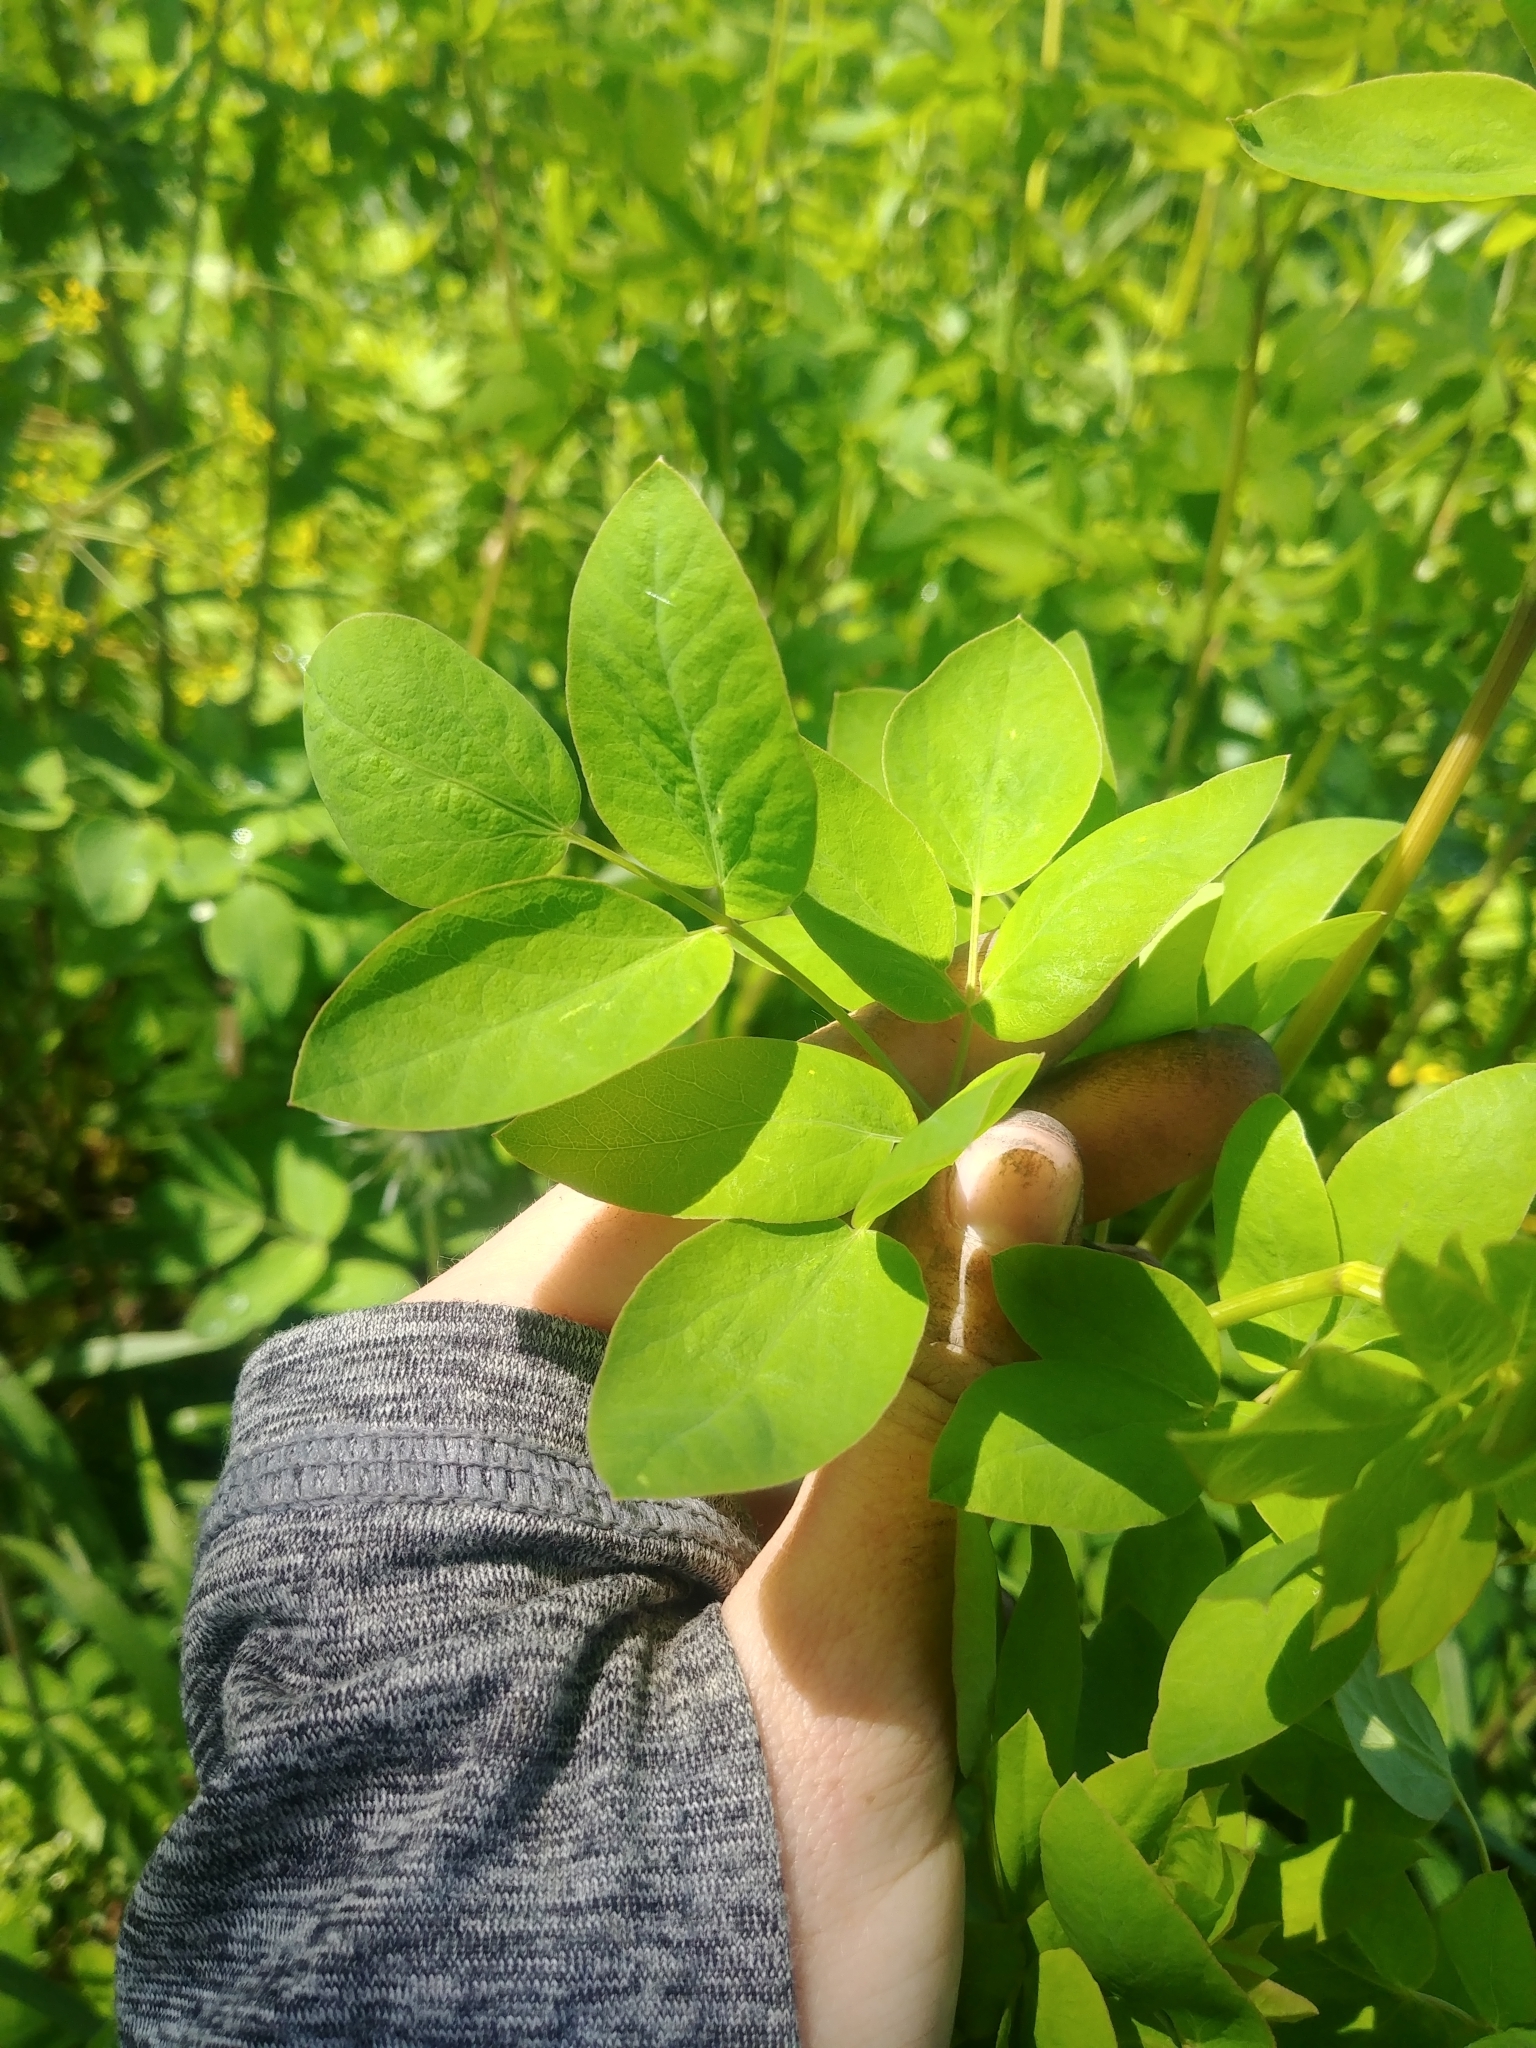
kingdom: Plantae
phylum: Tracheophyta
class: Magnoliopsida
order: Apiales
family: Apiaceae
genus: Taenidia
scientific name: Taenidia integerrima
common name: Golden alexander
